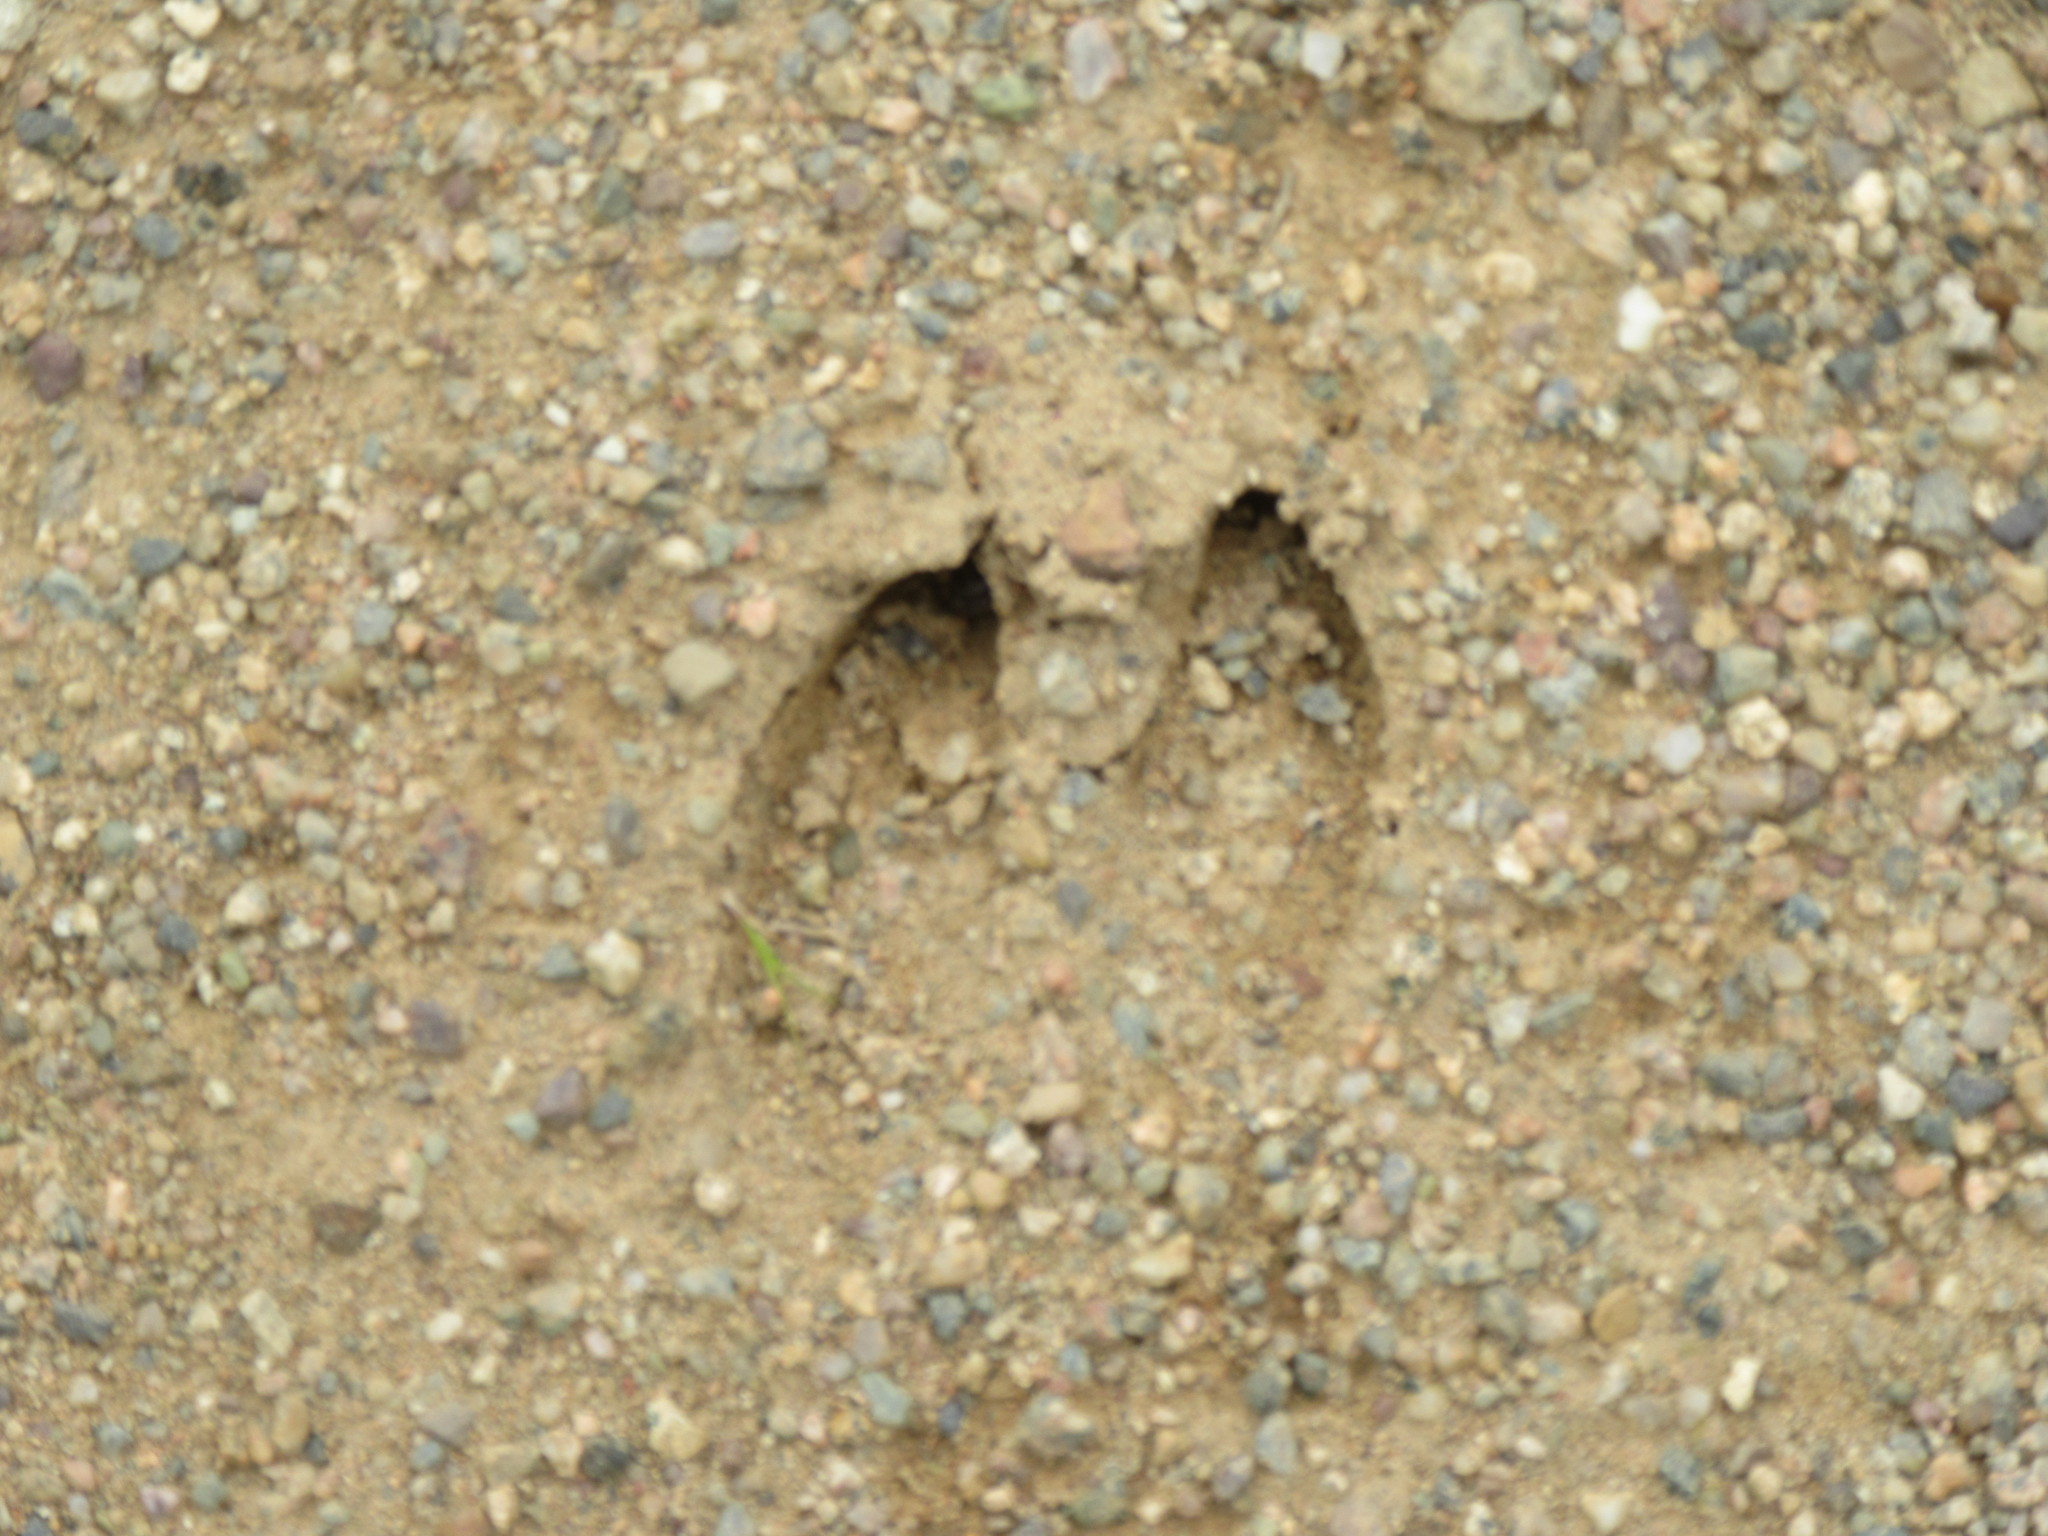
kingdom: Animalia
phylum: Chordata
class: Mammalia
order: Artiodactyla
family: Cervidae
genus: Odocoileus
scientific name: Odocoileus virginianus
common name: White-tailed deer
